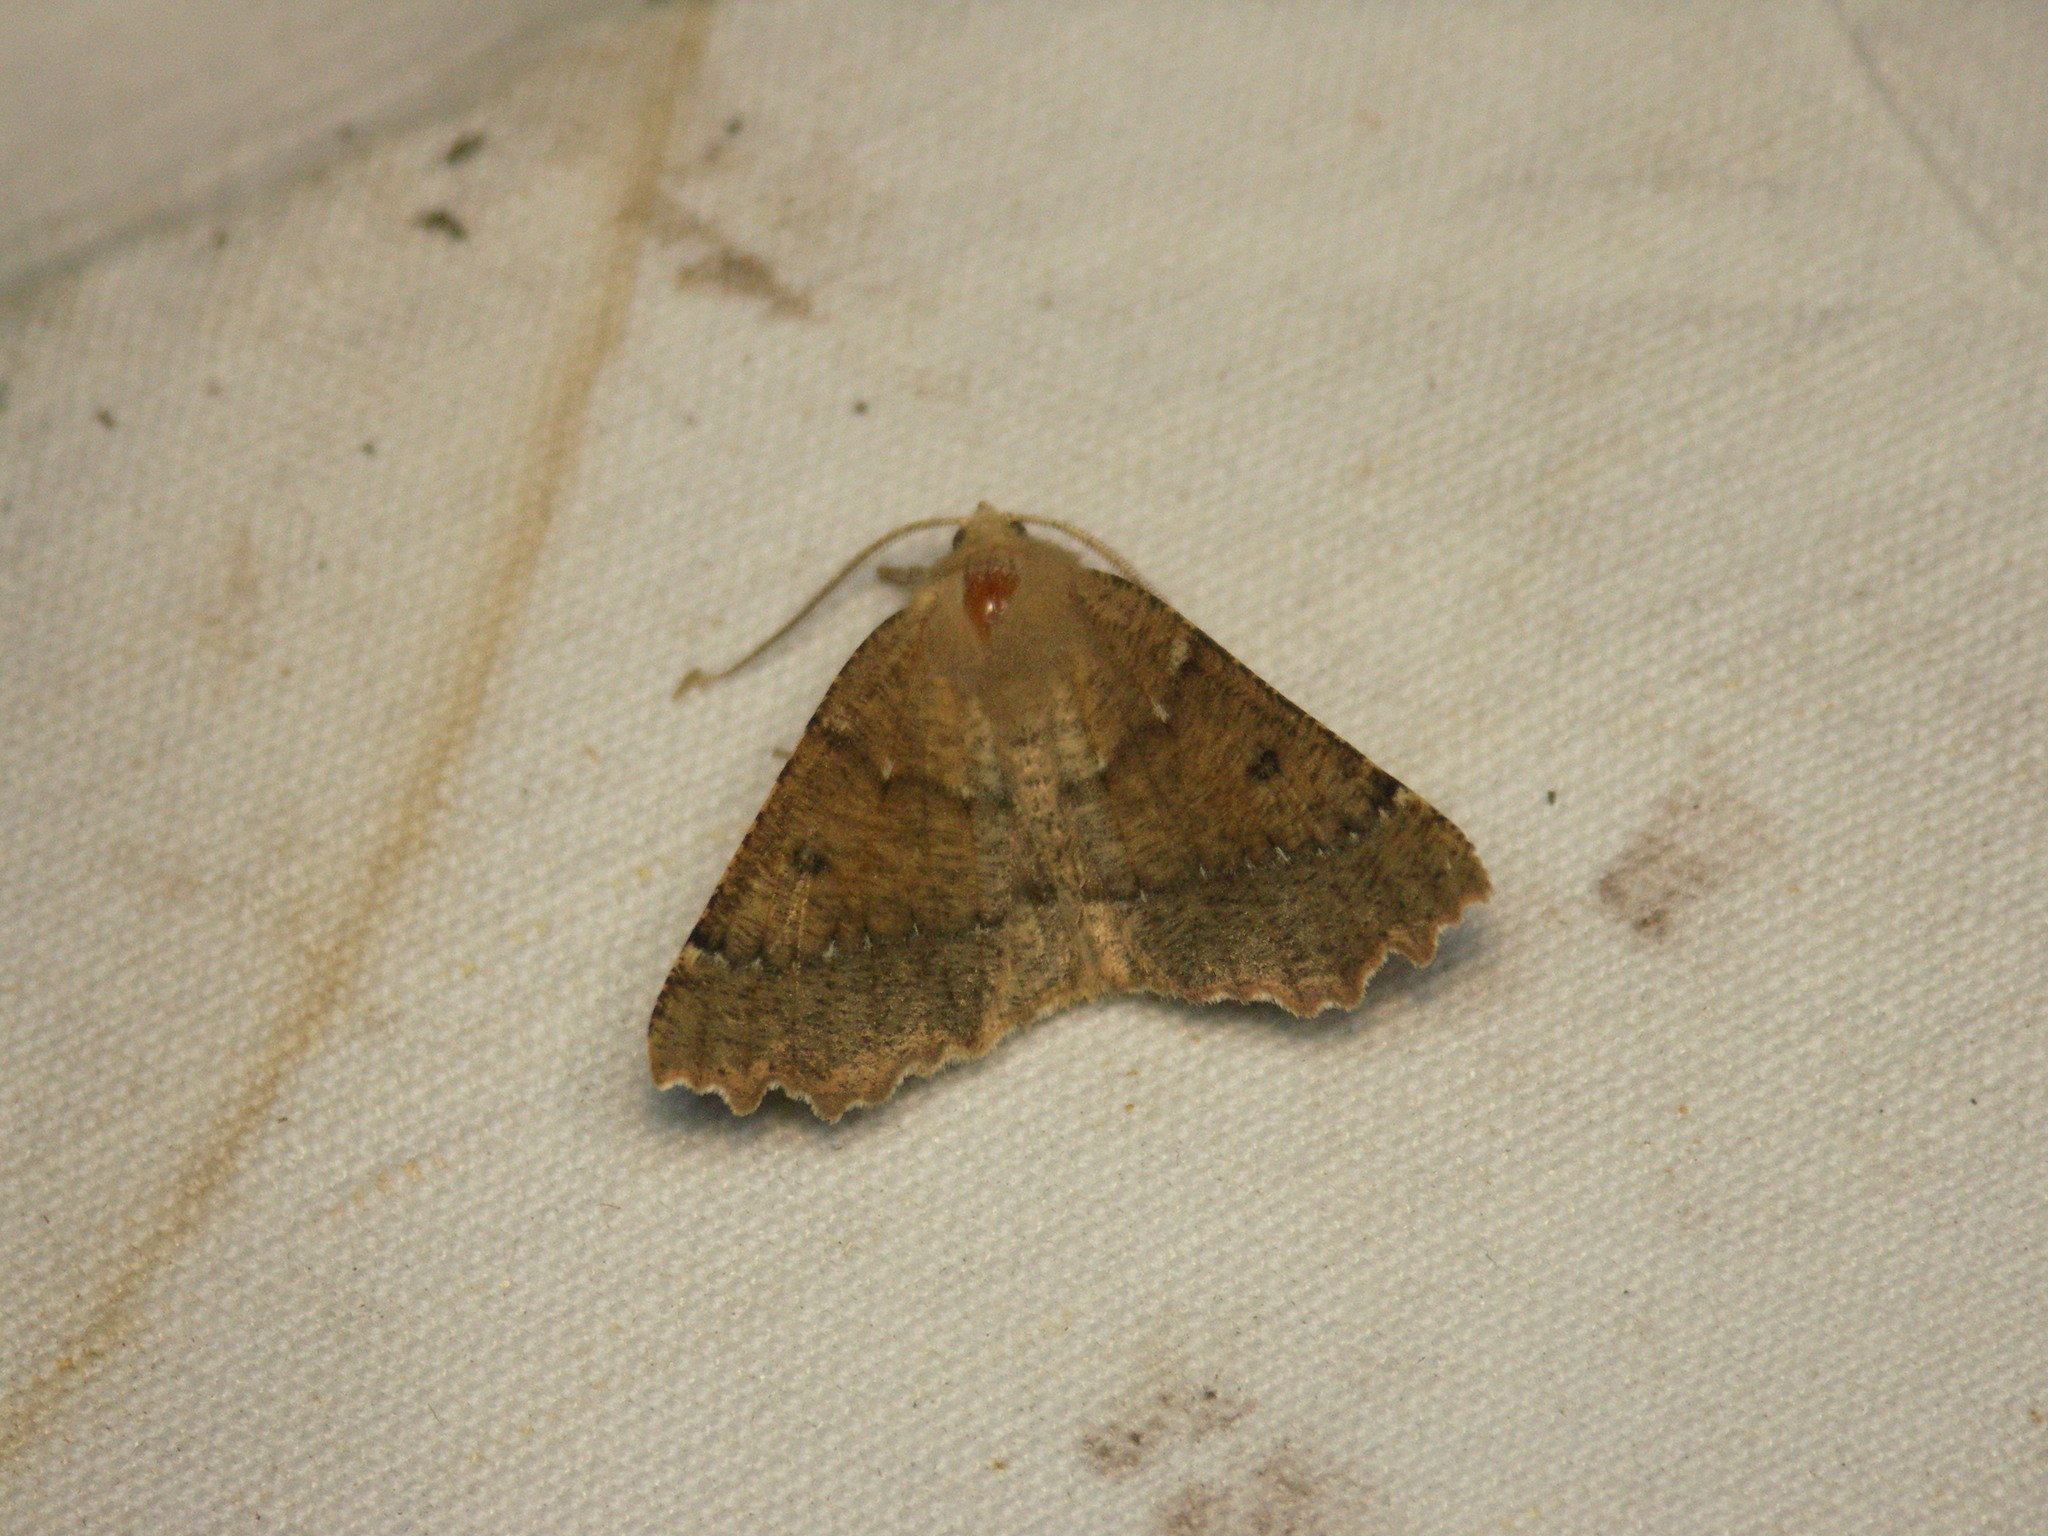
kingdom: Animalia
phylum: Arthropoda
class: Insecta
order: Lepidoptera
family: Geometridae
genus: Odontopera
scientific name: Odontopera bidentata
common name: Scalloped hazel
